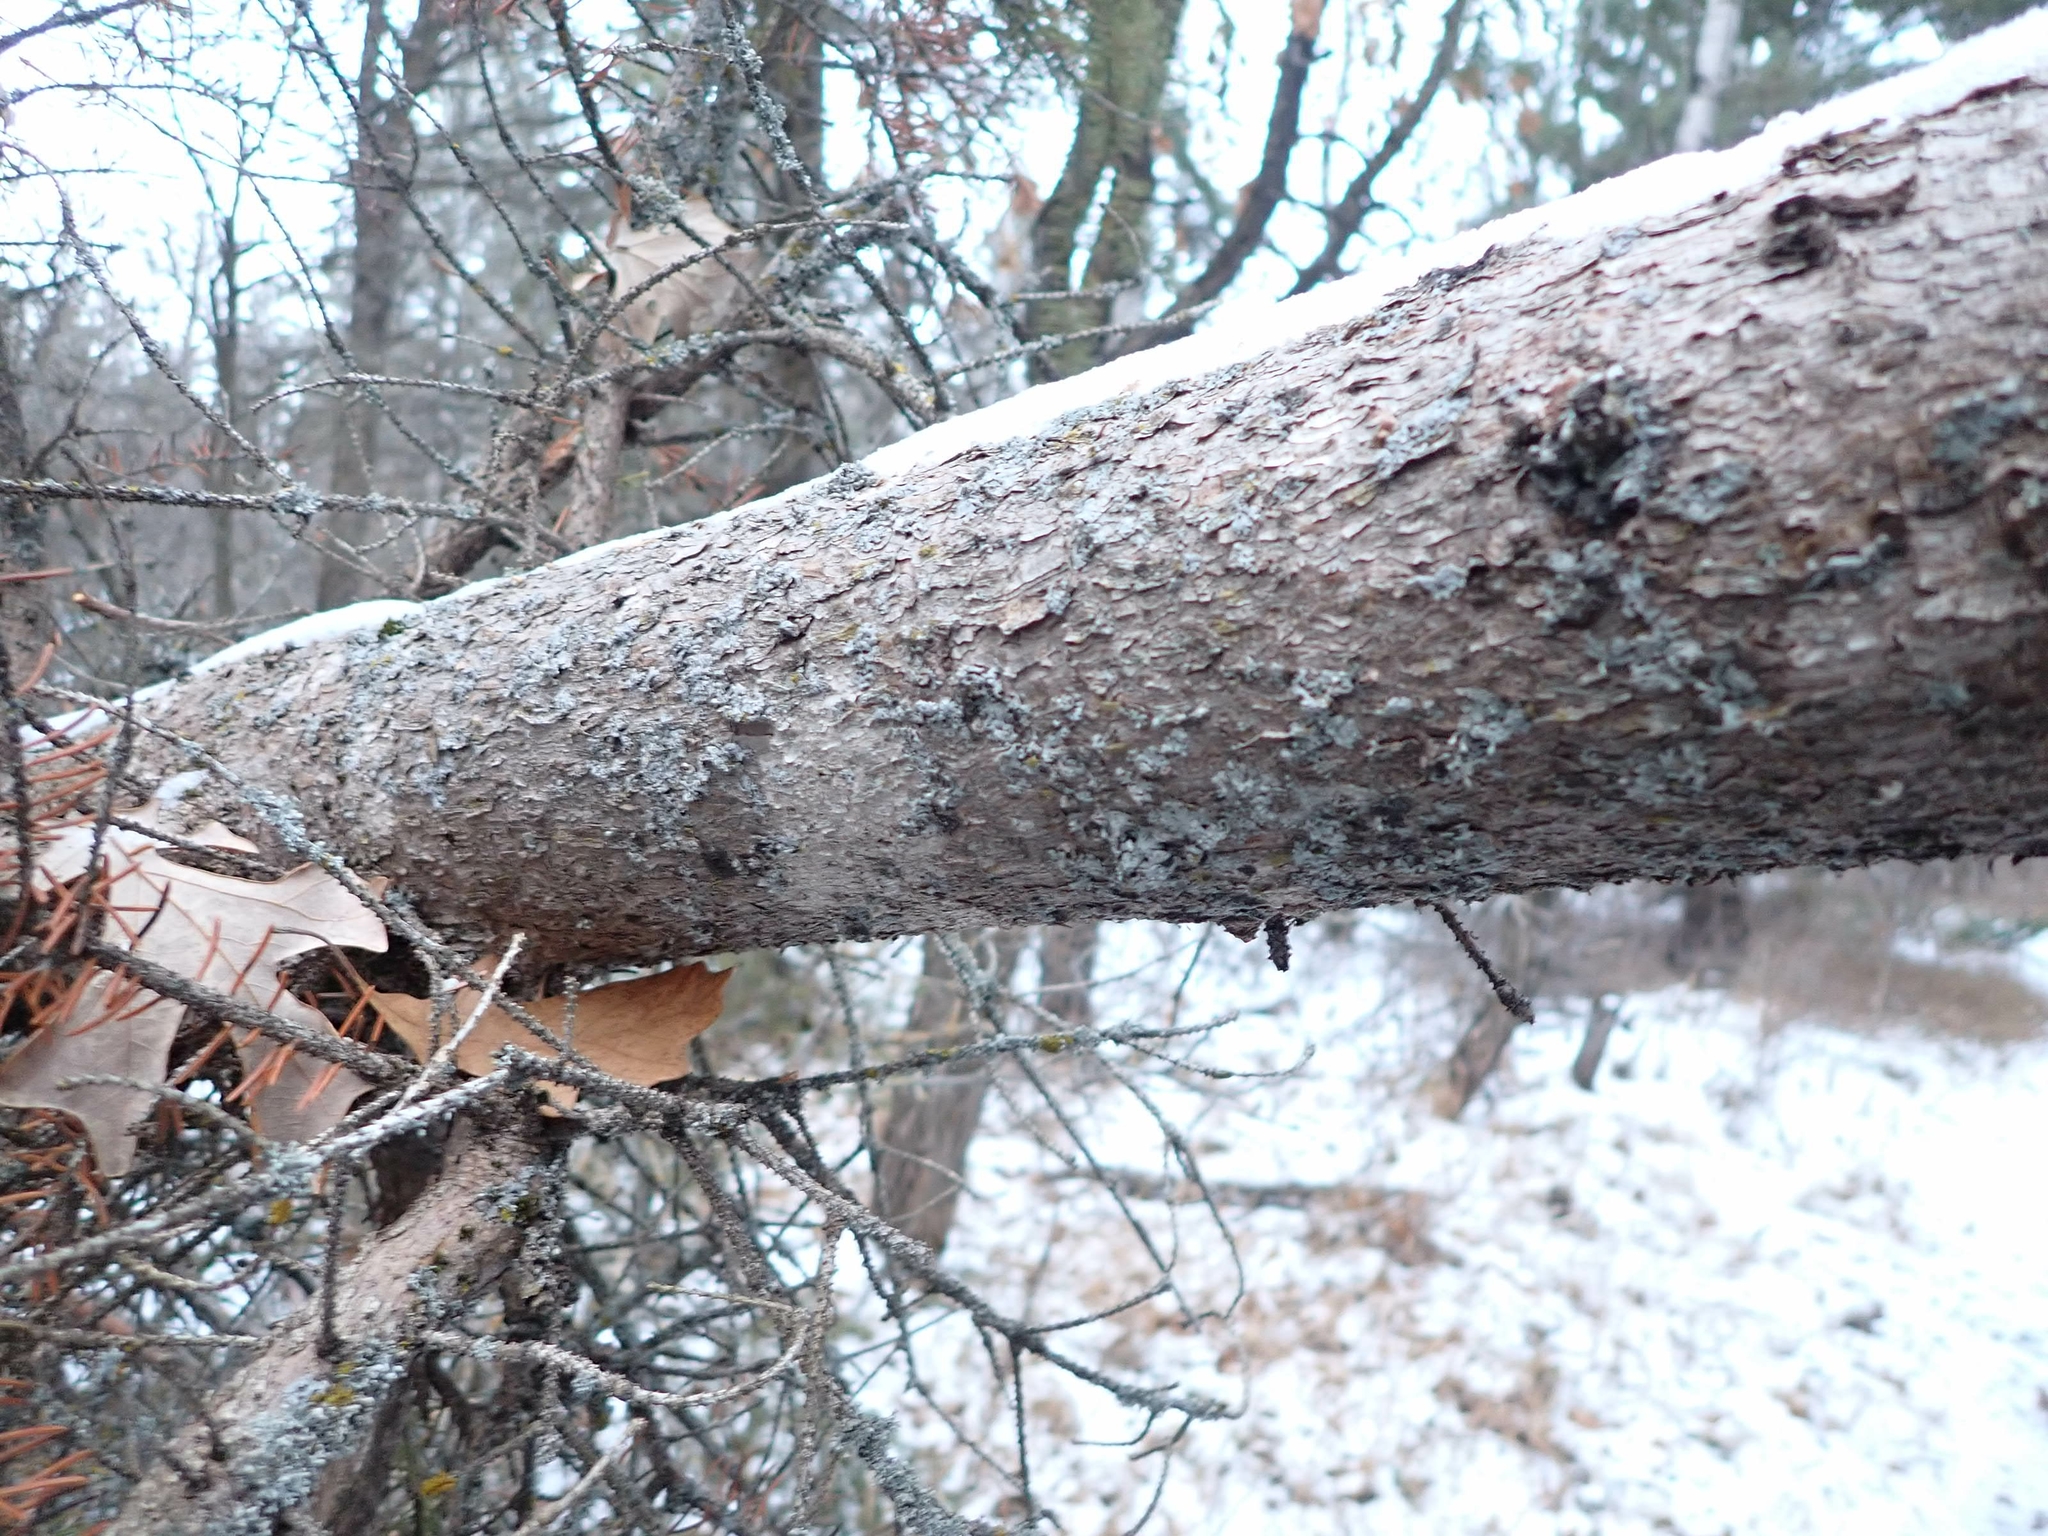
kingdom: Plantae
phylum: Tracheophyta
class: Pinopsida
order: Pinales
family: Pinaceae
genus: Picea
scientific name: Picea glauca
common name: White spruce
